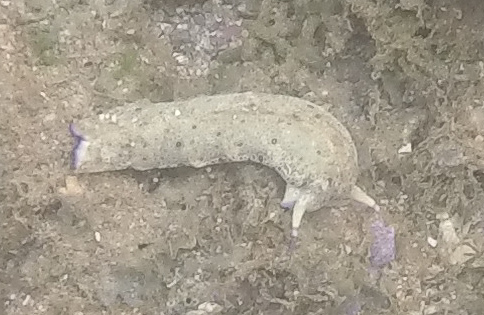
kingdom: Animalia
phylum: Mollusca
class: Gastropoda
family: Plakobranchidae
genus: Plakobranchus
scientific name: Plakobranchus ocellatus
